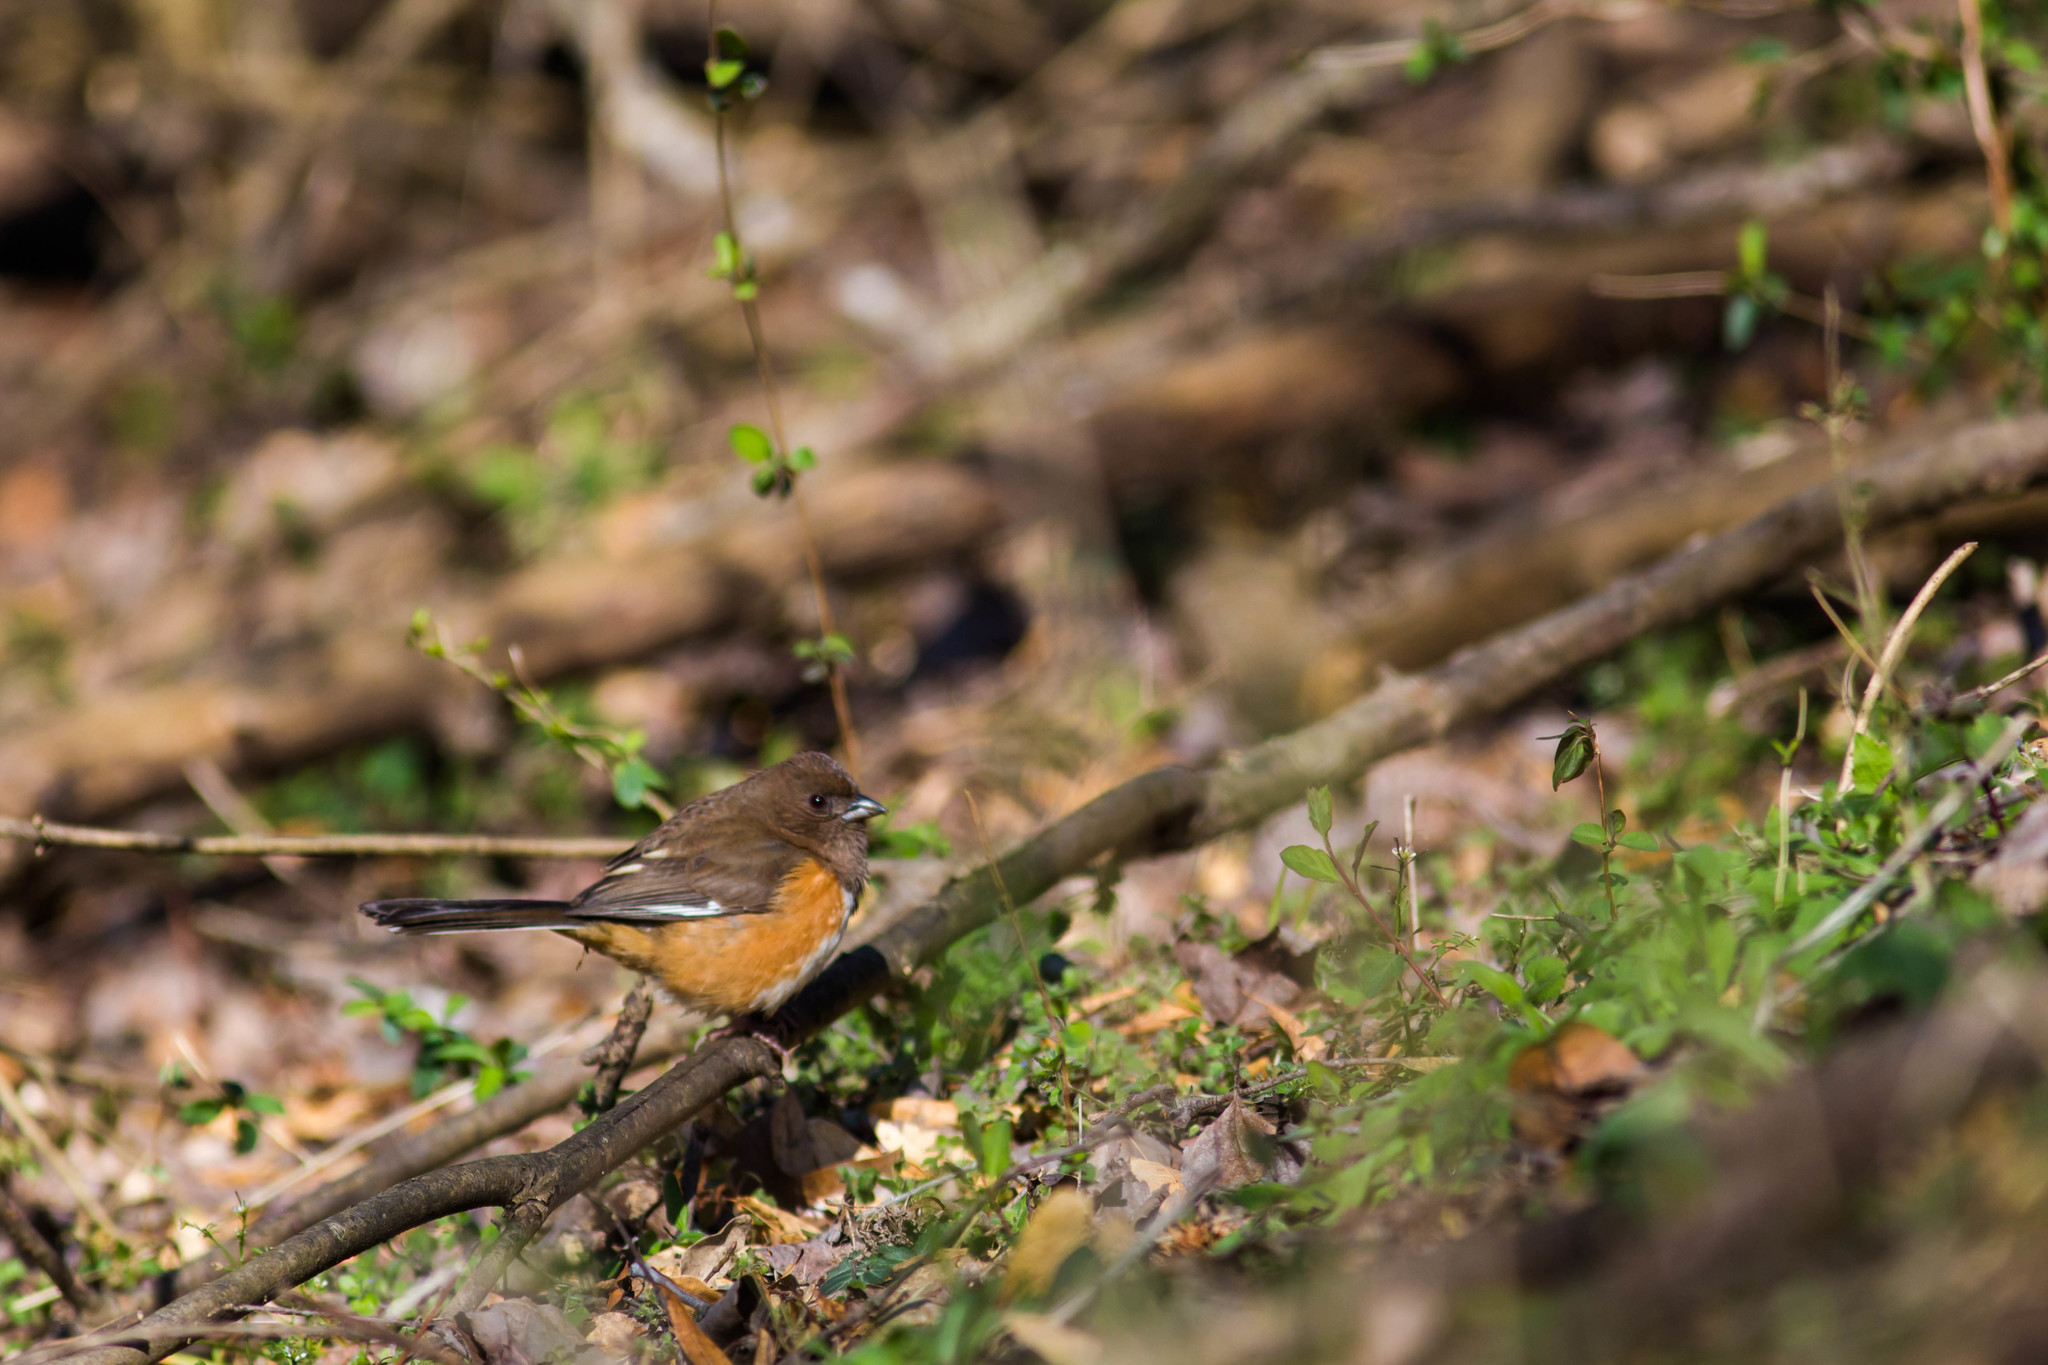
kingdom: Animalia
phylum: Chordata
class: Aves
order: Passeriformes
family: Passerellidae
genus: Pipilo
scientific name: Pipilo erythrophthalmus
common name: Eastern towhee
